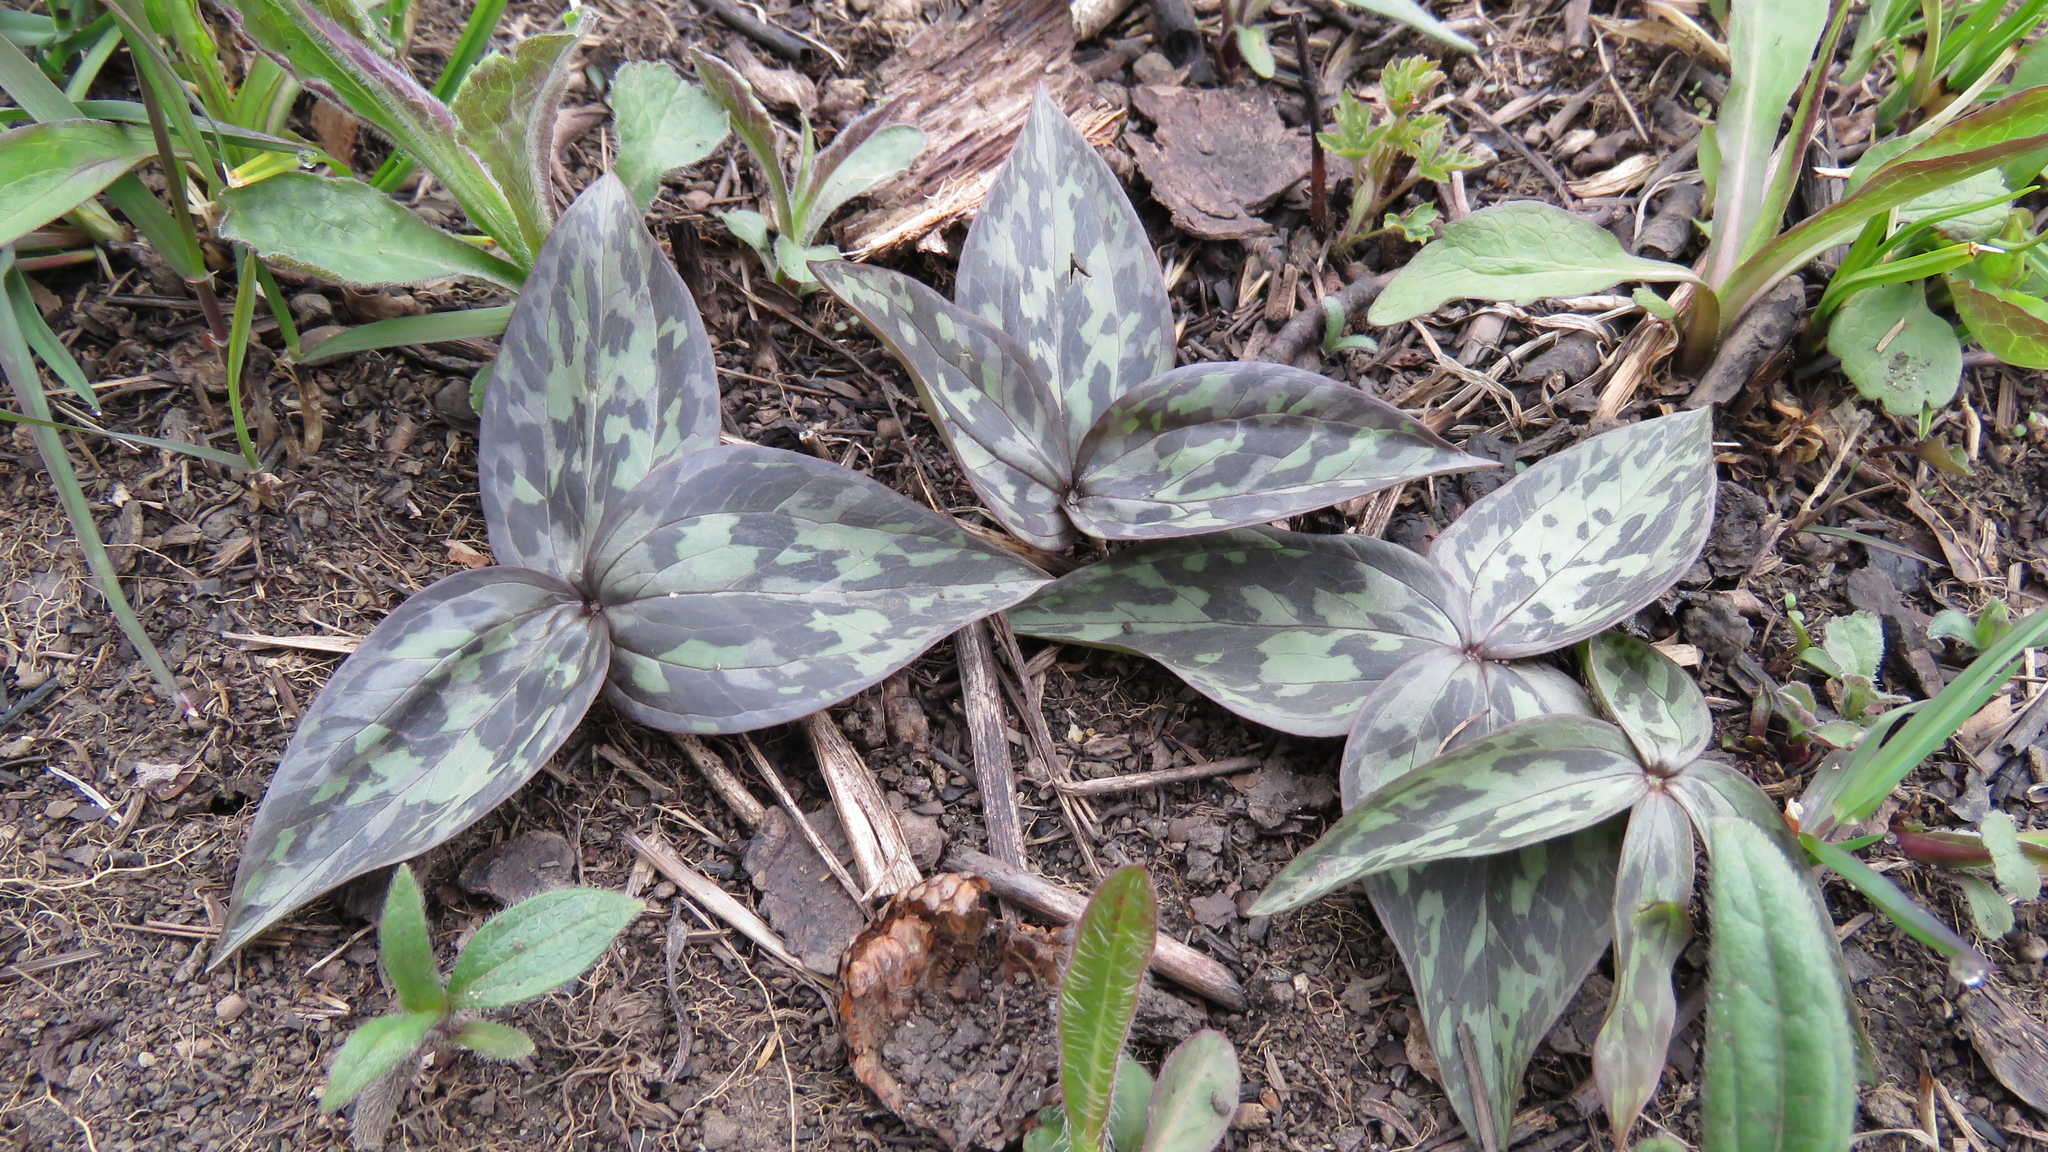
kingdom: Plantae
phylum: Tracheophyta
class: Liliopsida
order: Liliales
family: Melanthiaceae
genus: Trillium
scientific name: Trillium recurvatum
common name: Bloody butcher
